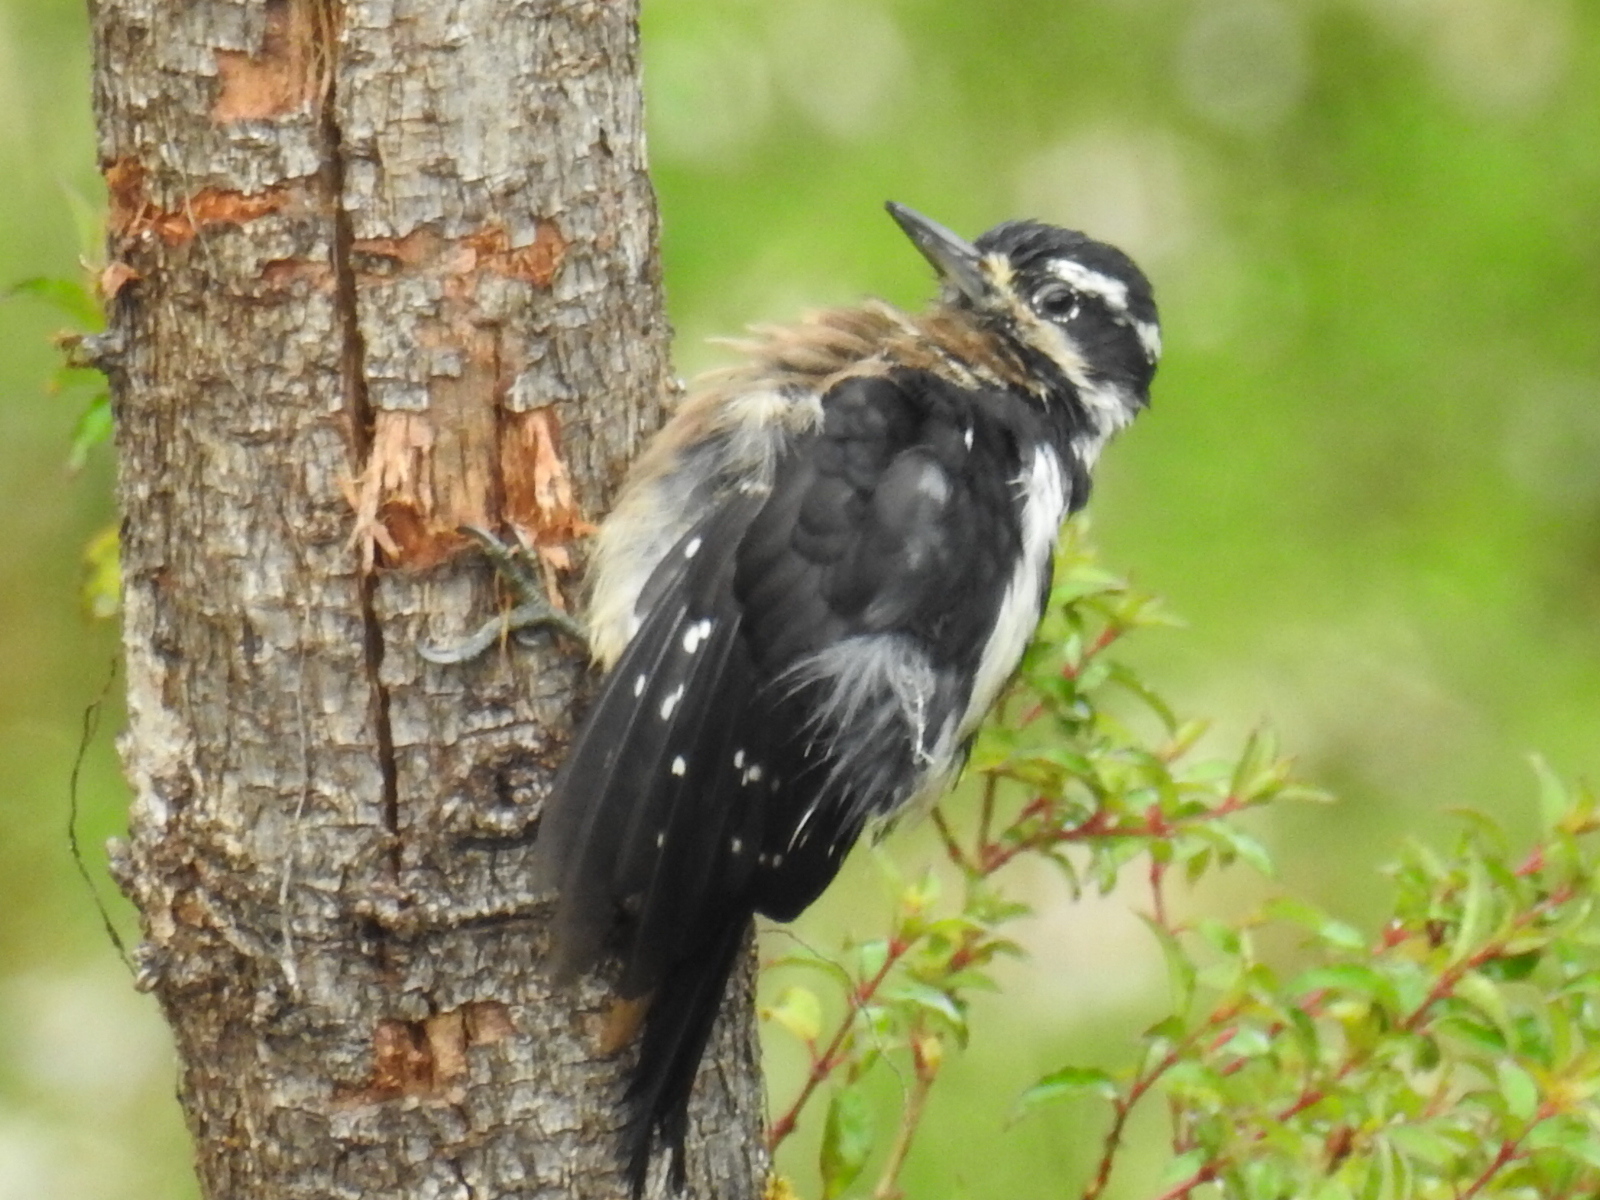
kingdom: Animalia
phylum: Chordata
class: Aves
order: Piciformes
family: Picidae
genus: Leuconotopicus
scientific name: Leuconotopicus villosus
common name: Hairy woodpecker
